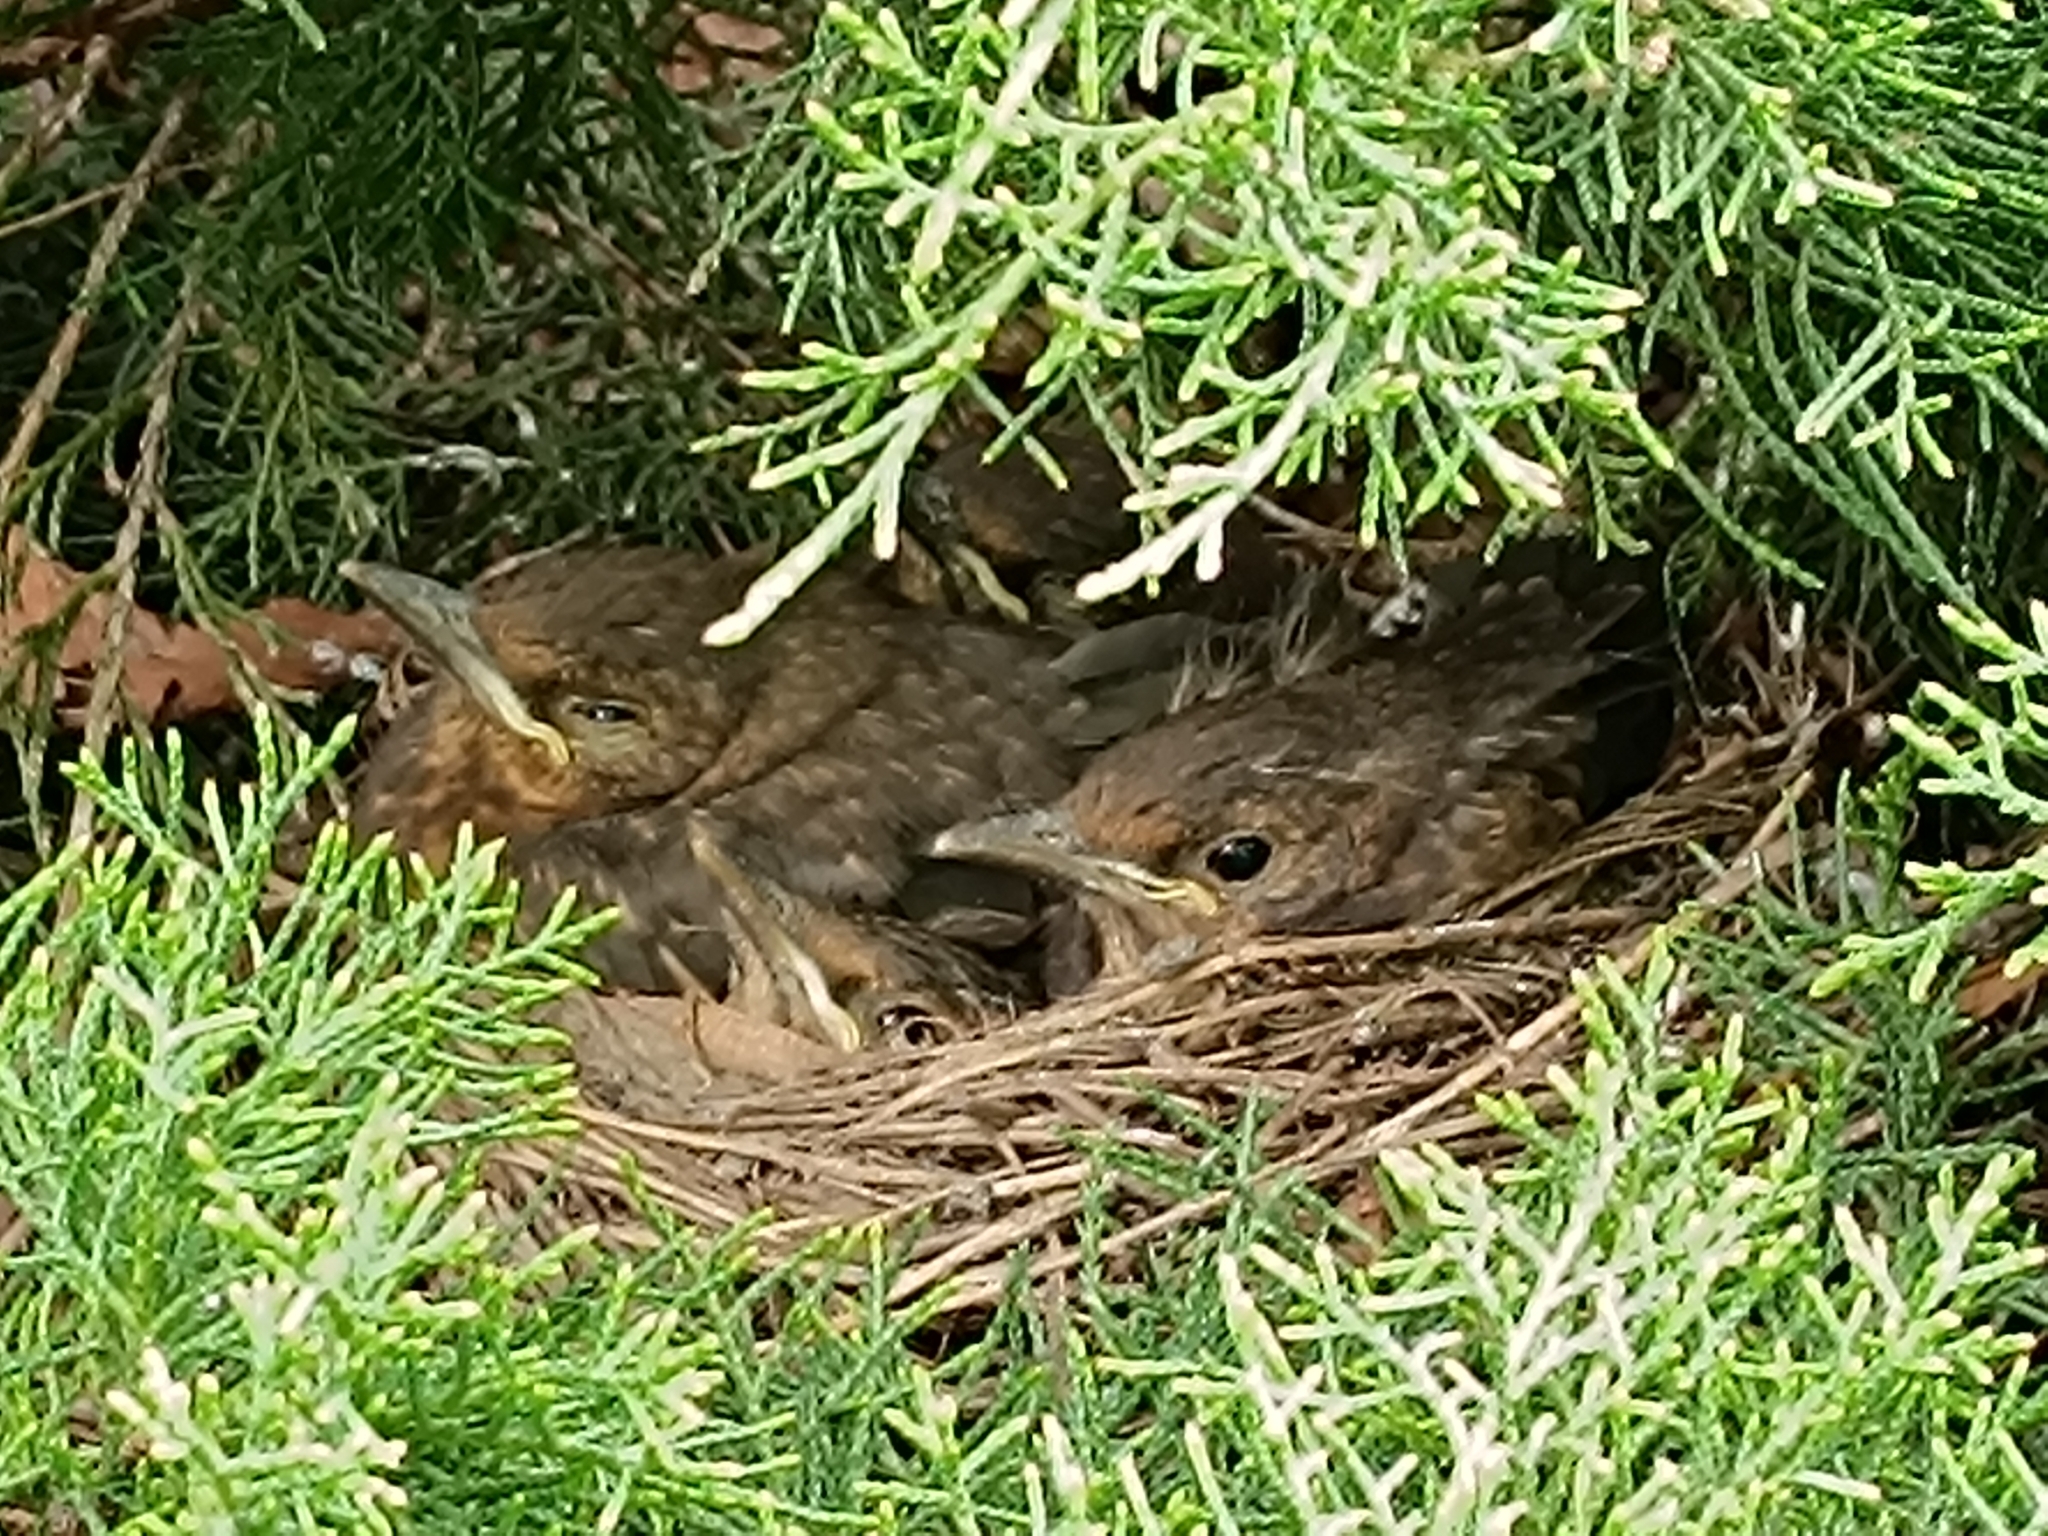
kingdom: Animalia
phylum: Chordata
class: Aves
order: Passeriformes
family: Turdidae
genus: Turdus
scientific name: Turdus merula
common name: Common blackbird
